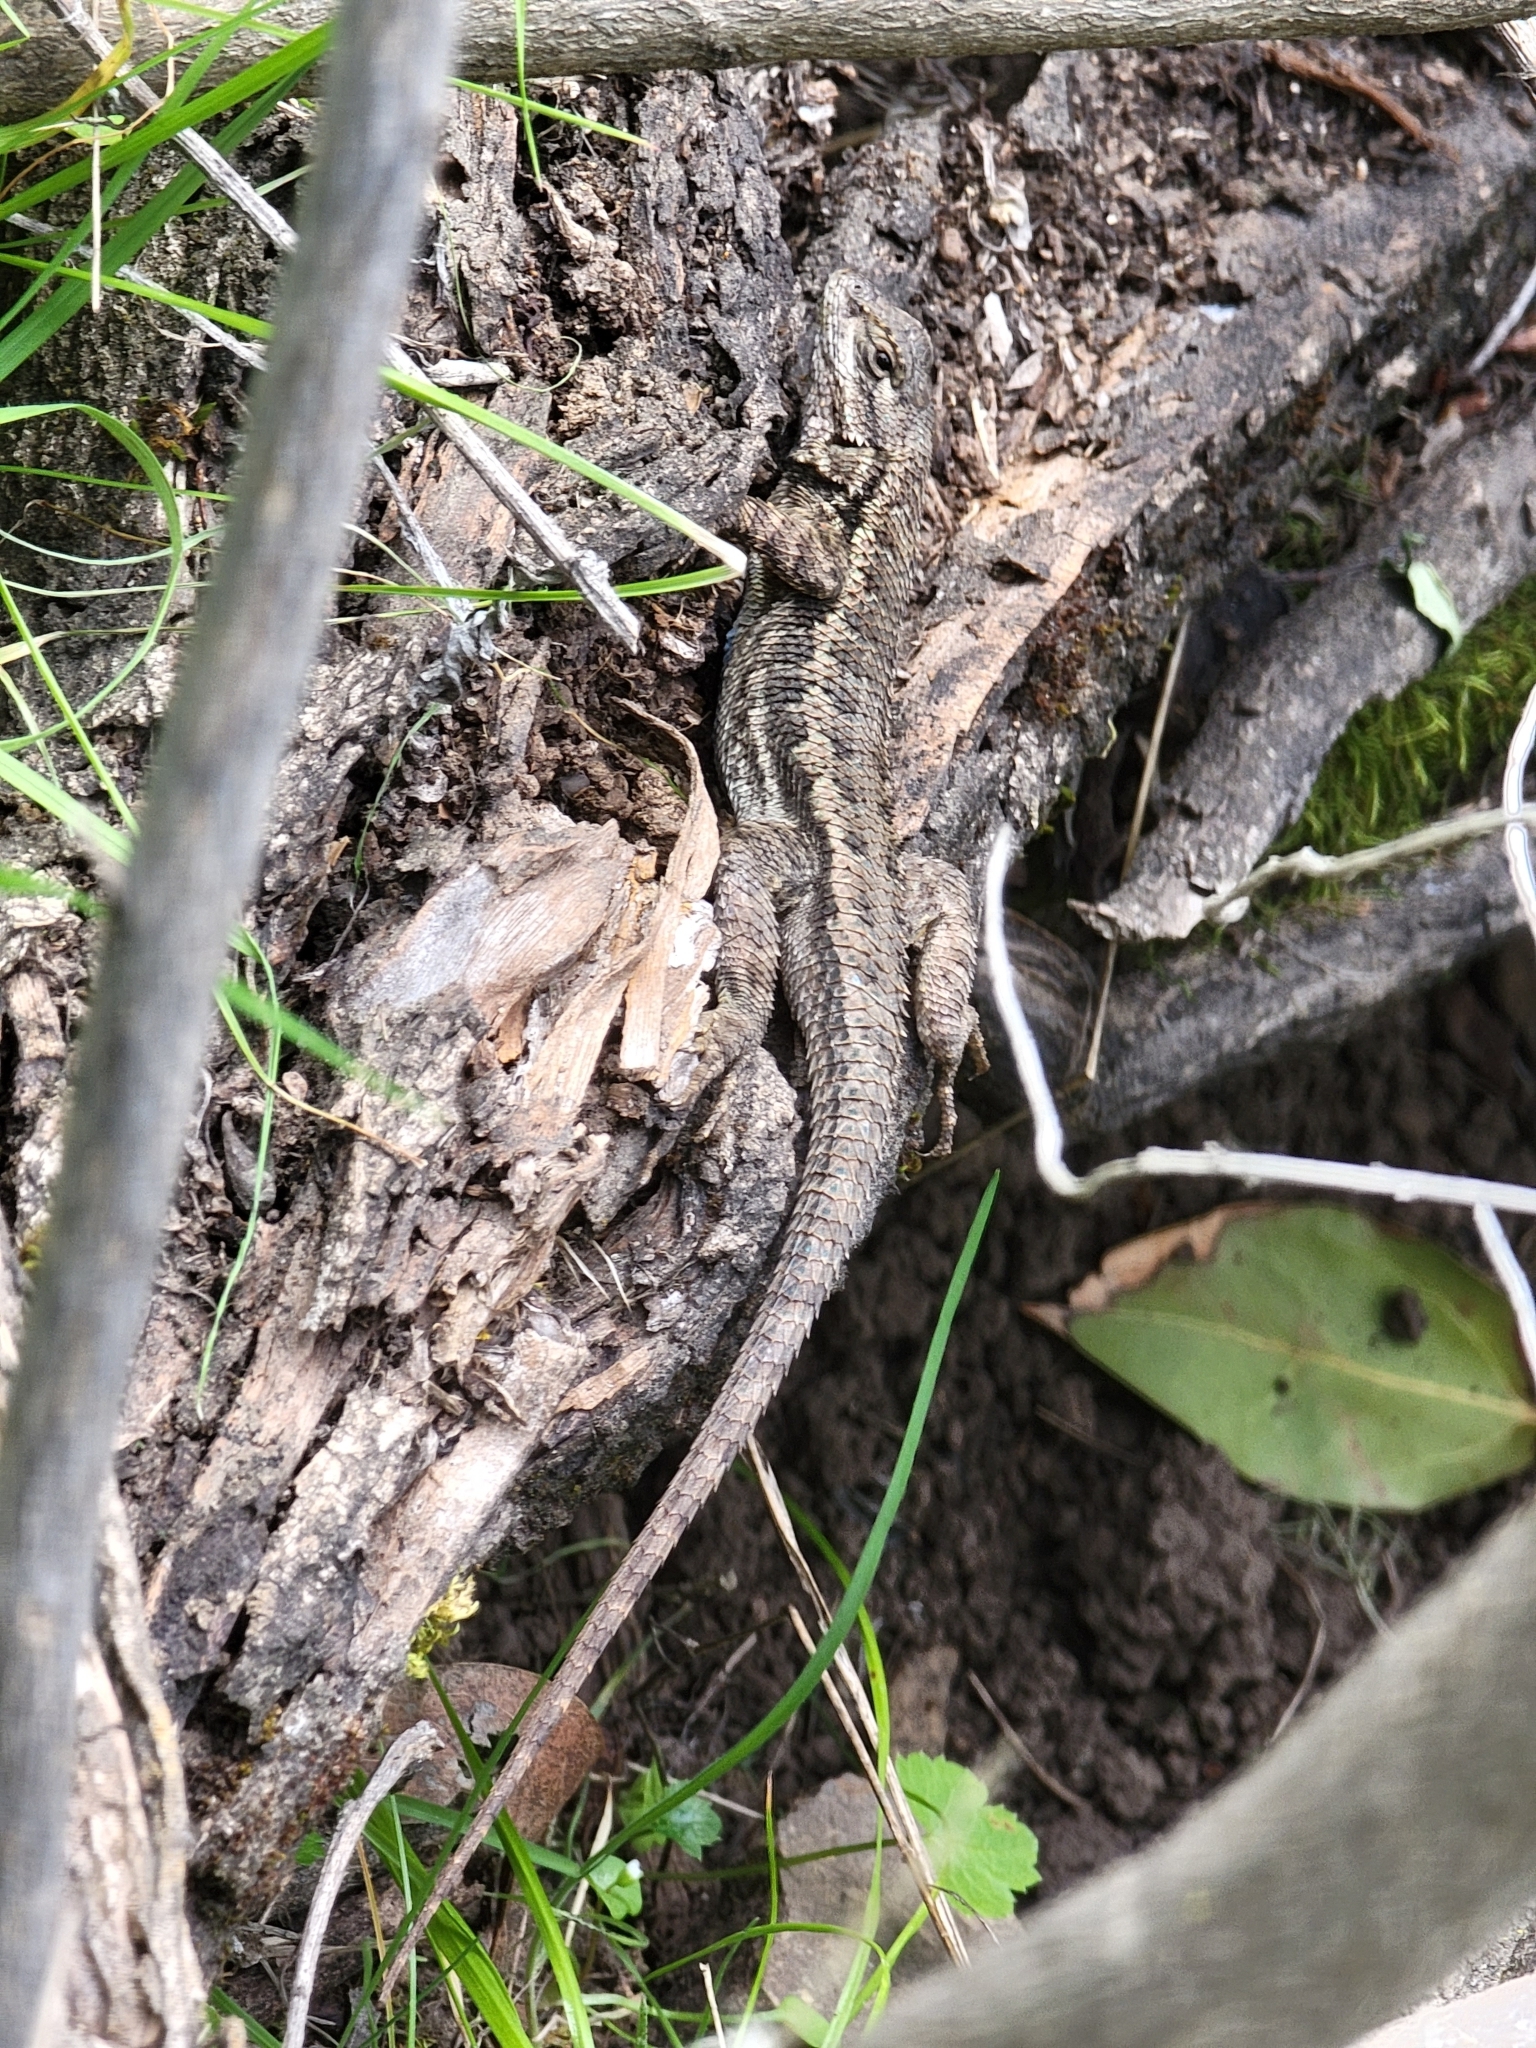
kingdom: Animalia
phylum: Chordata
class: Squamata
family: Phrynosomatidae
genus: Sceloporus
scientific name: Sceloporus occidentalis
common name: Western fence lizard
